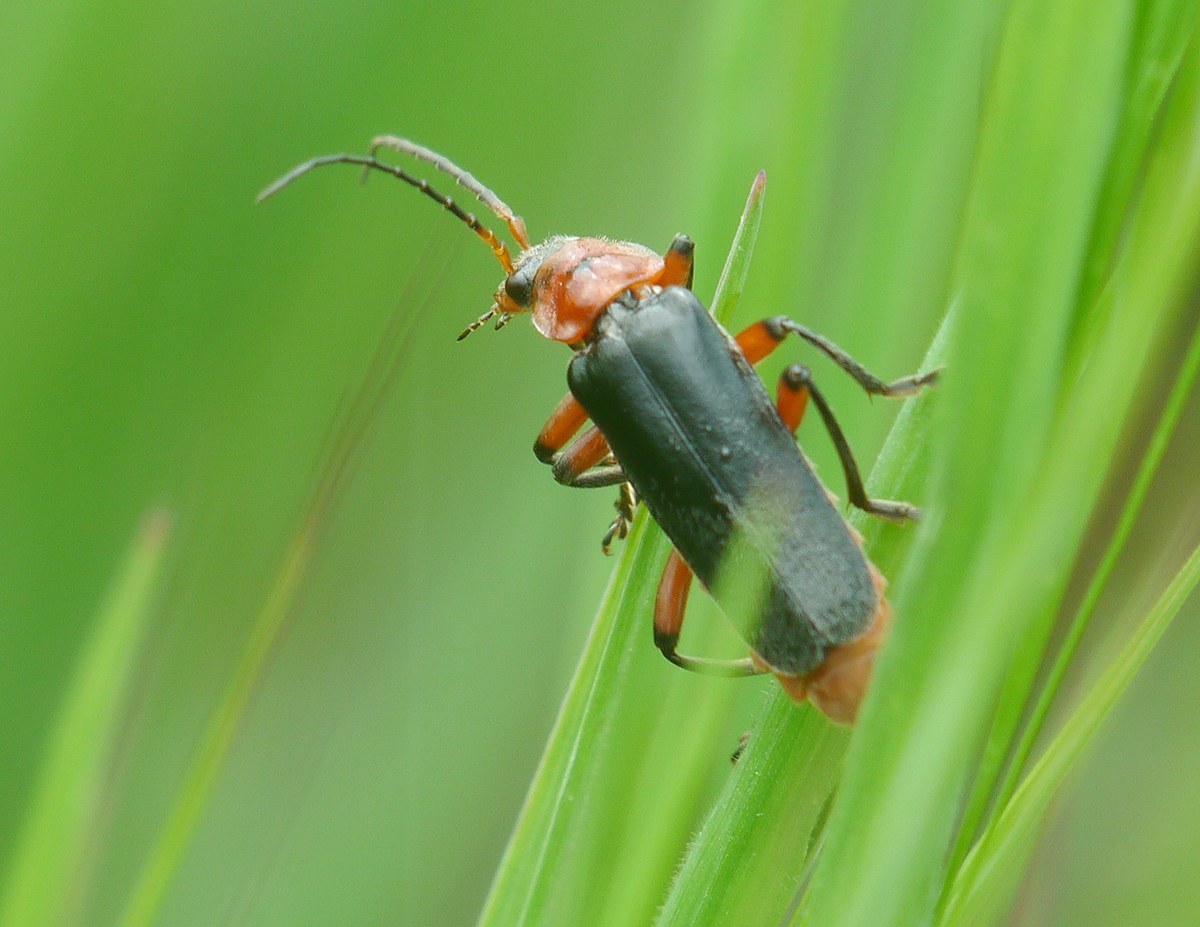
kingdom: Animalia
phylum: Arthropoda
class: Insecta
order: Coleoptera
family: Cantharidae
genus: Cantharis
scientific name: Cantharis rustica
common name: Soldier beetle
